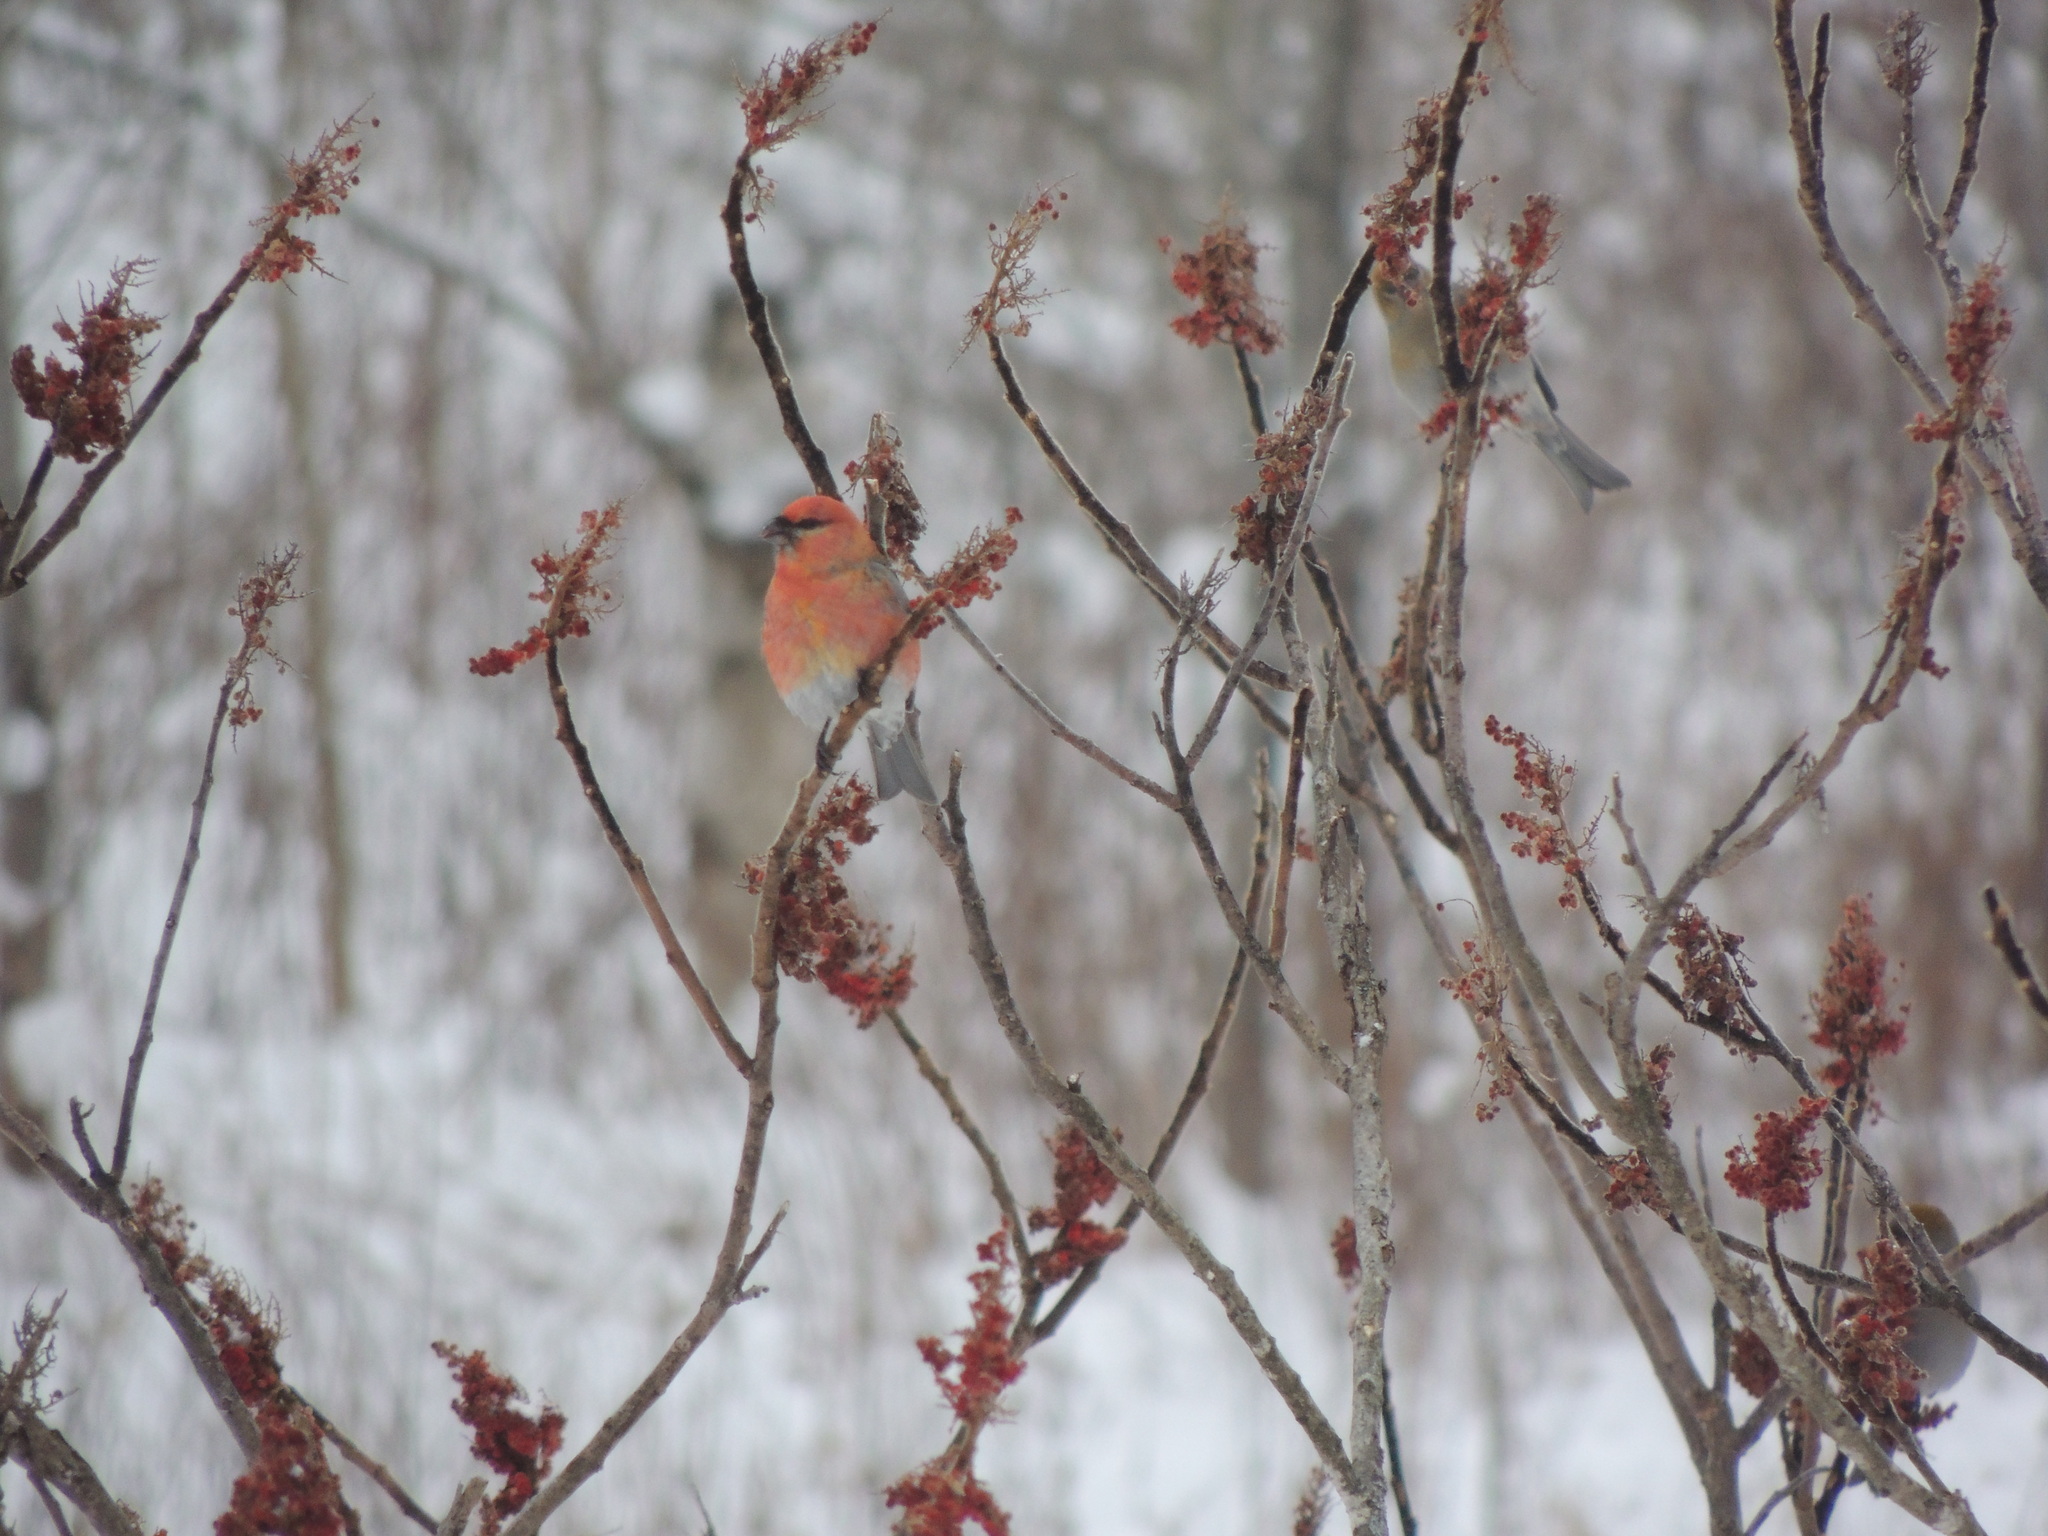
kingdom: Animalia
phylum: Chordata
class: Aves
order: Passeriformes
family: Fringillidae
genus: Pinicola
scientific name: Pinicola enucleator
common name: Pine grosbeak
